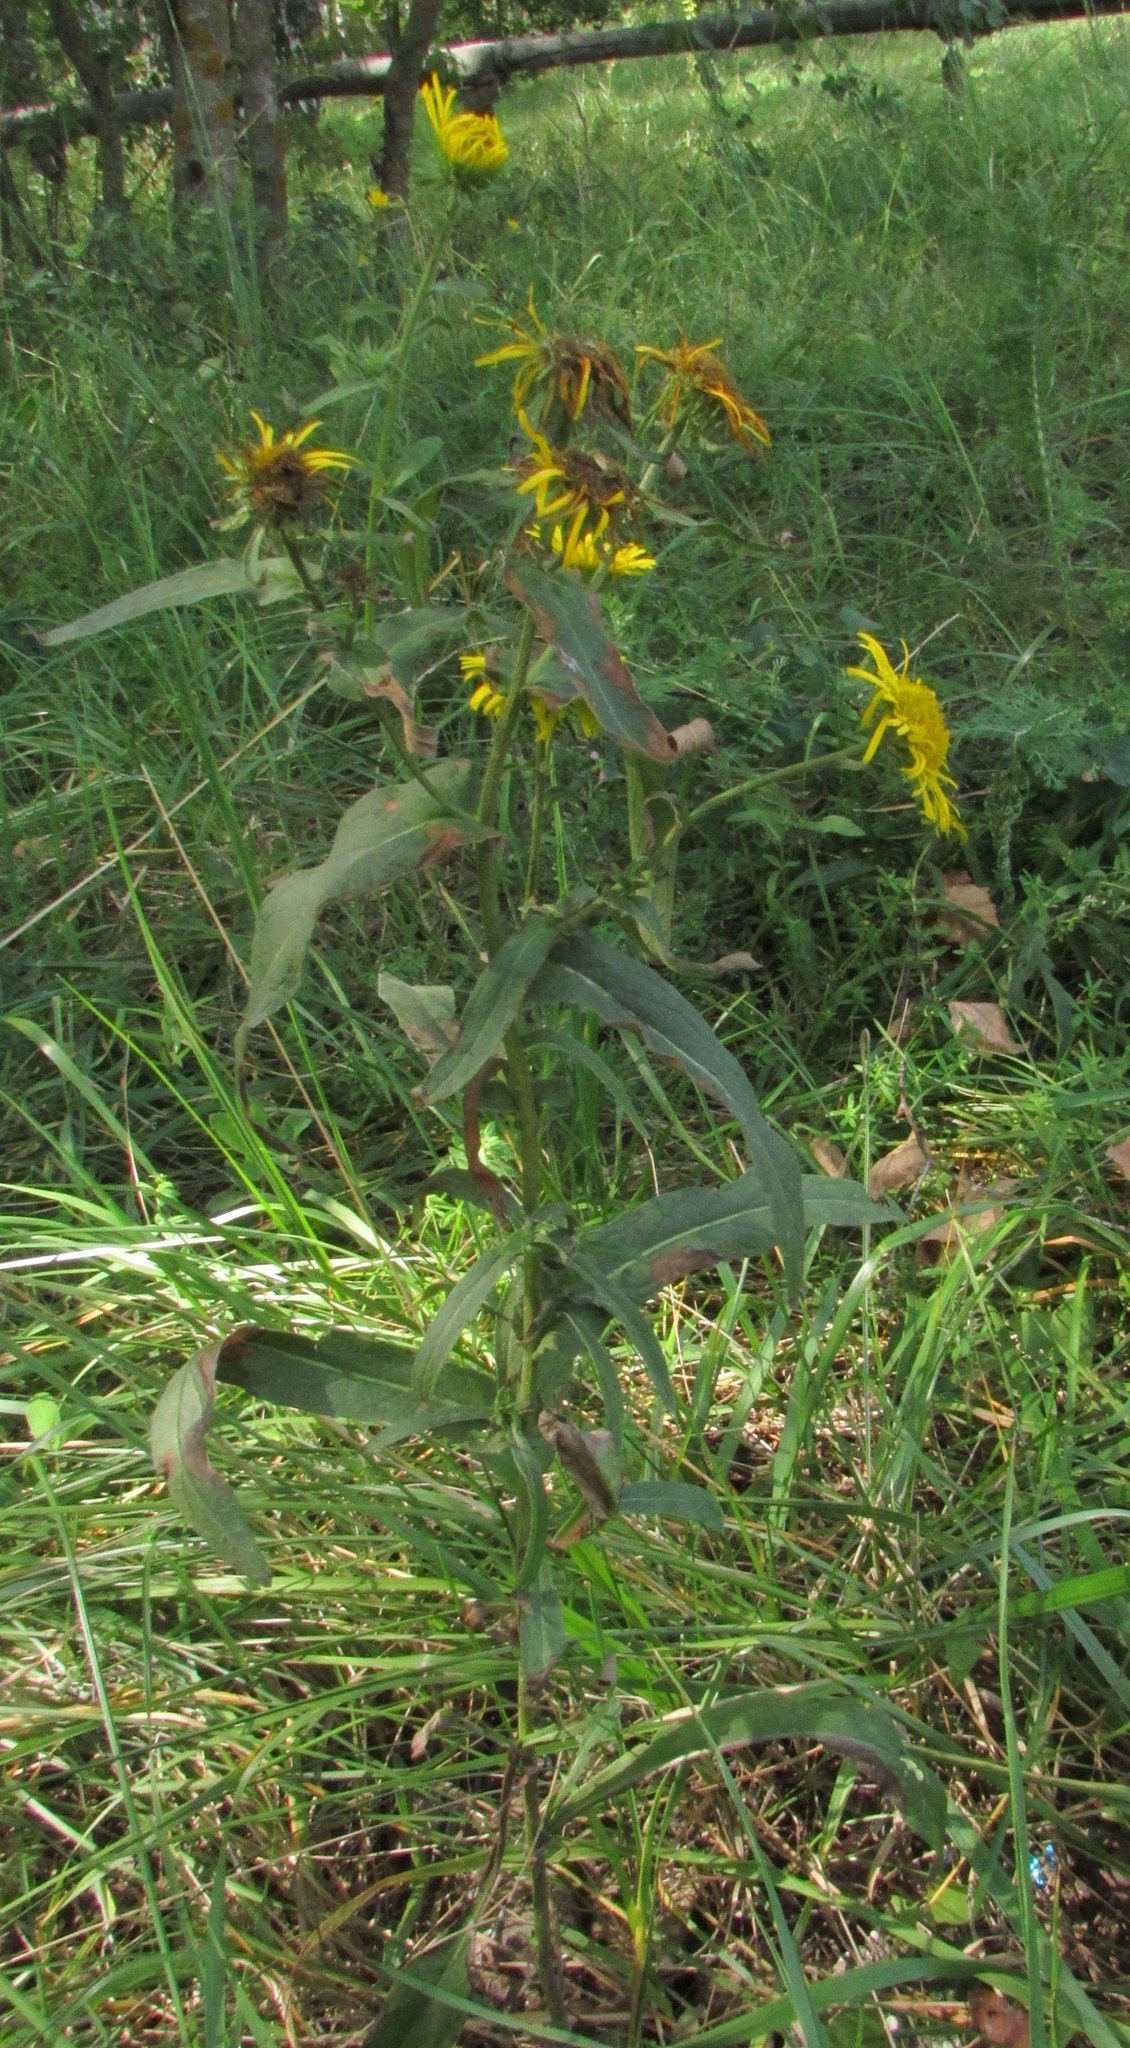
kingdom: Plantae
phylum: Tracheophyta
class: Magnoliopsida
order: Asterales
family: Asteraceae
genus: Pentanema
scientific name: Pentanema britannicum
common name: British elecampane
